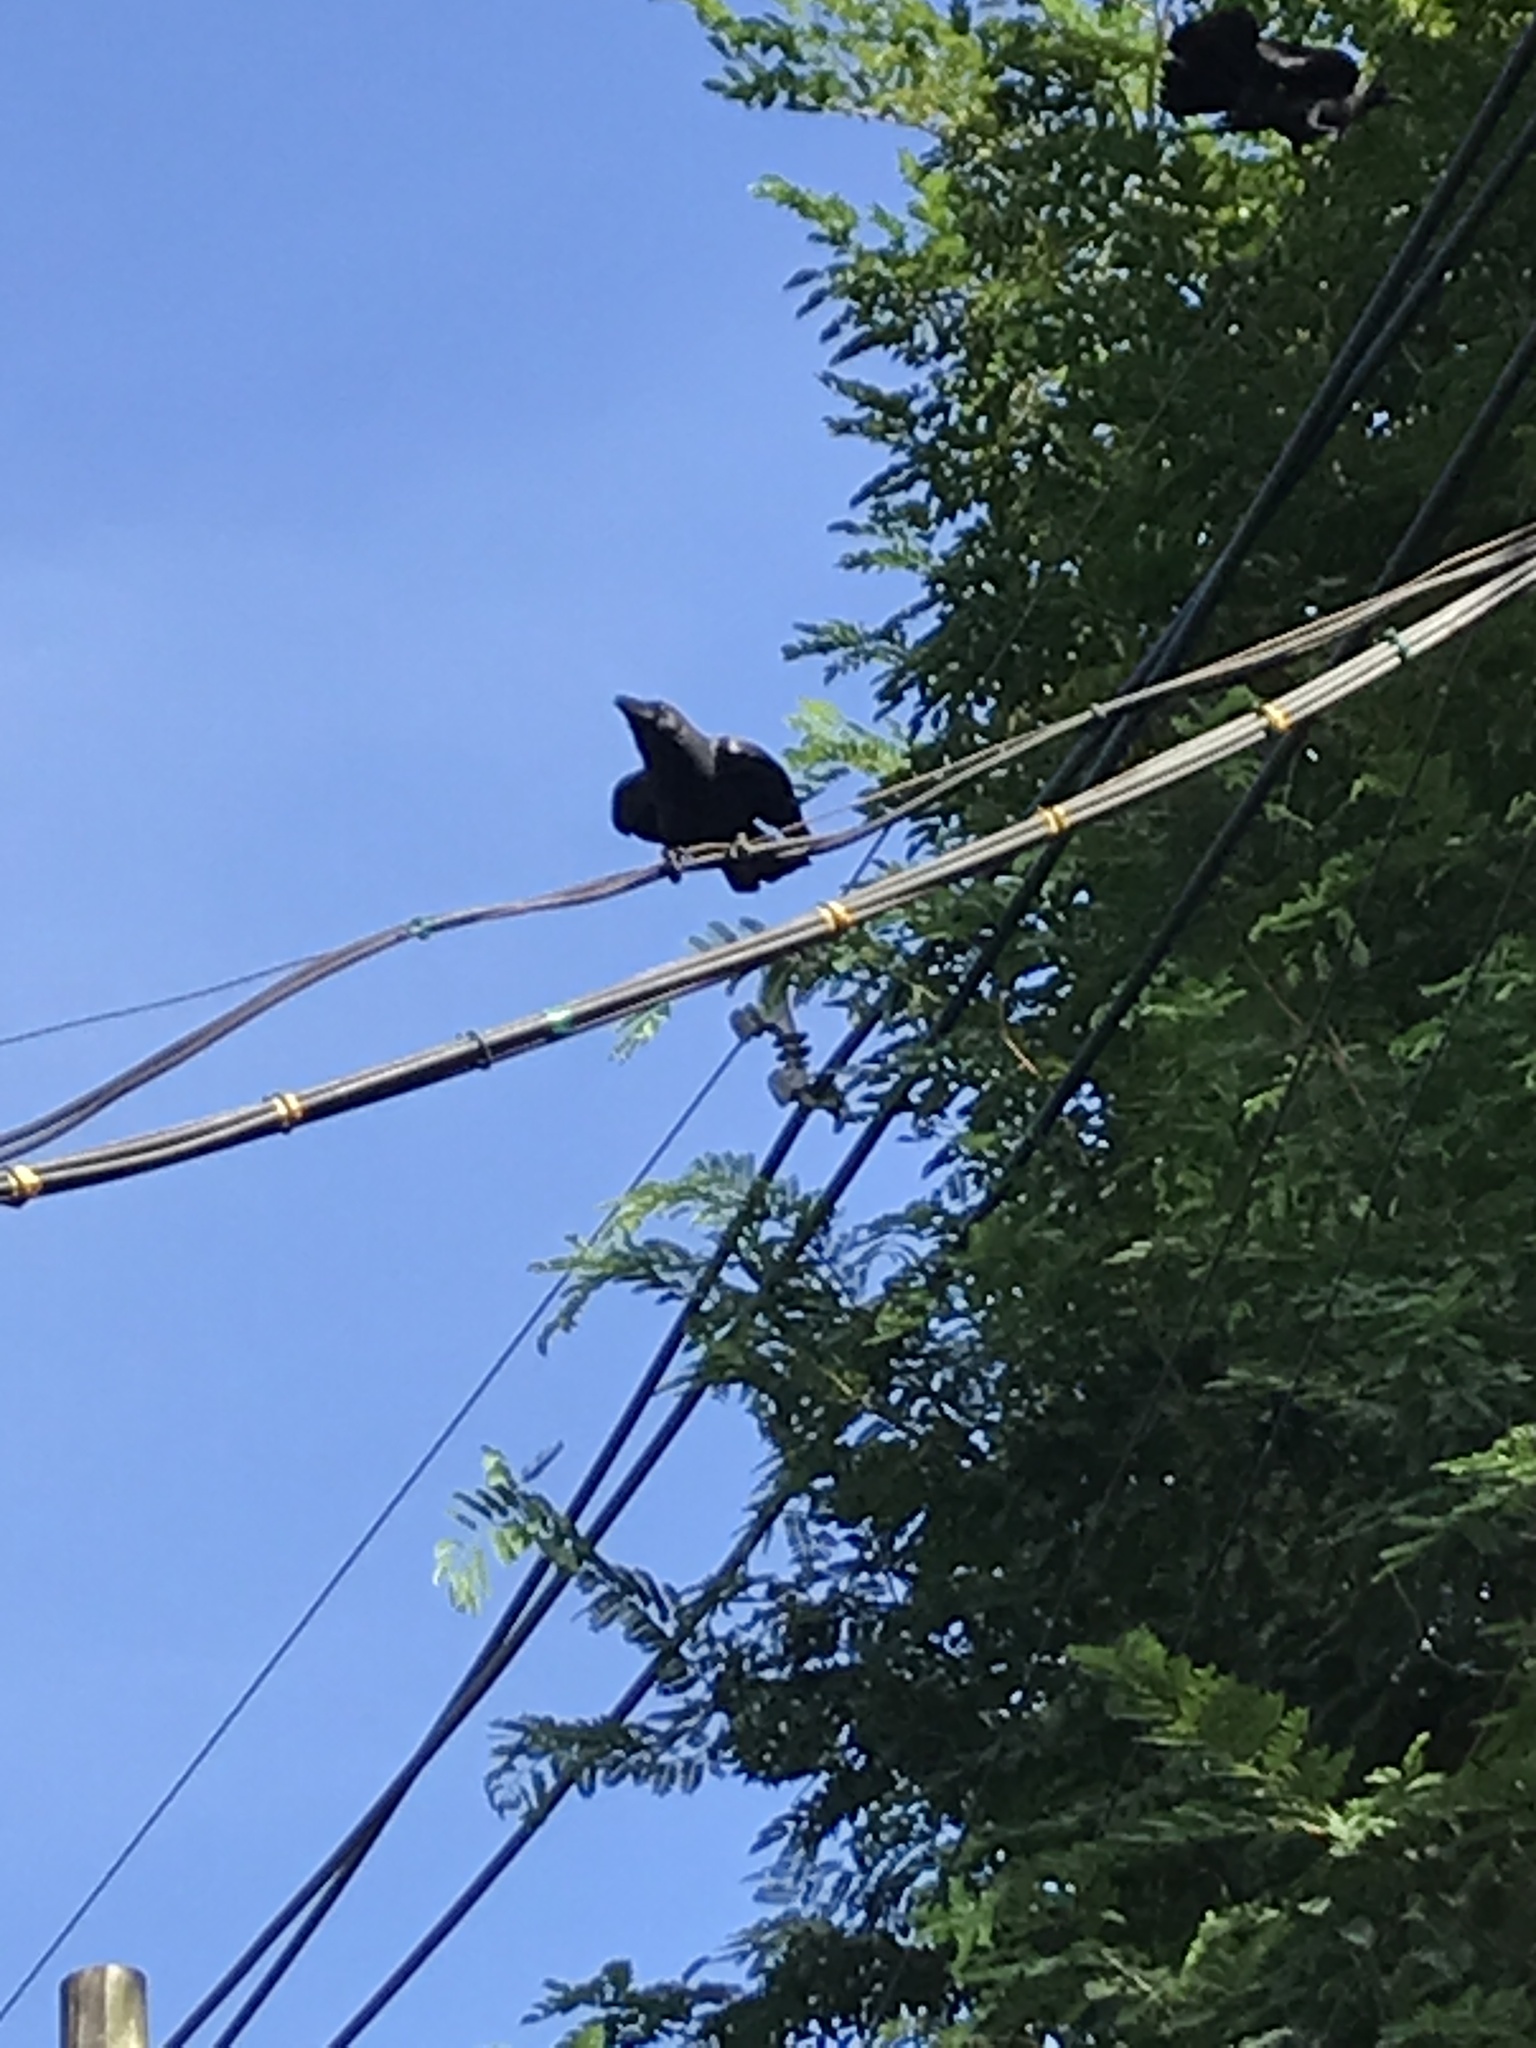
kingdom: Animalia
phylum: Chordata
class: Aves
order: Passeriformes
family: Corvidae
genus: Corvus
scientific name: Corvus splendens
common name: House crow
